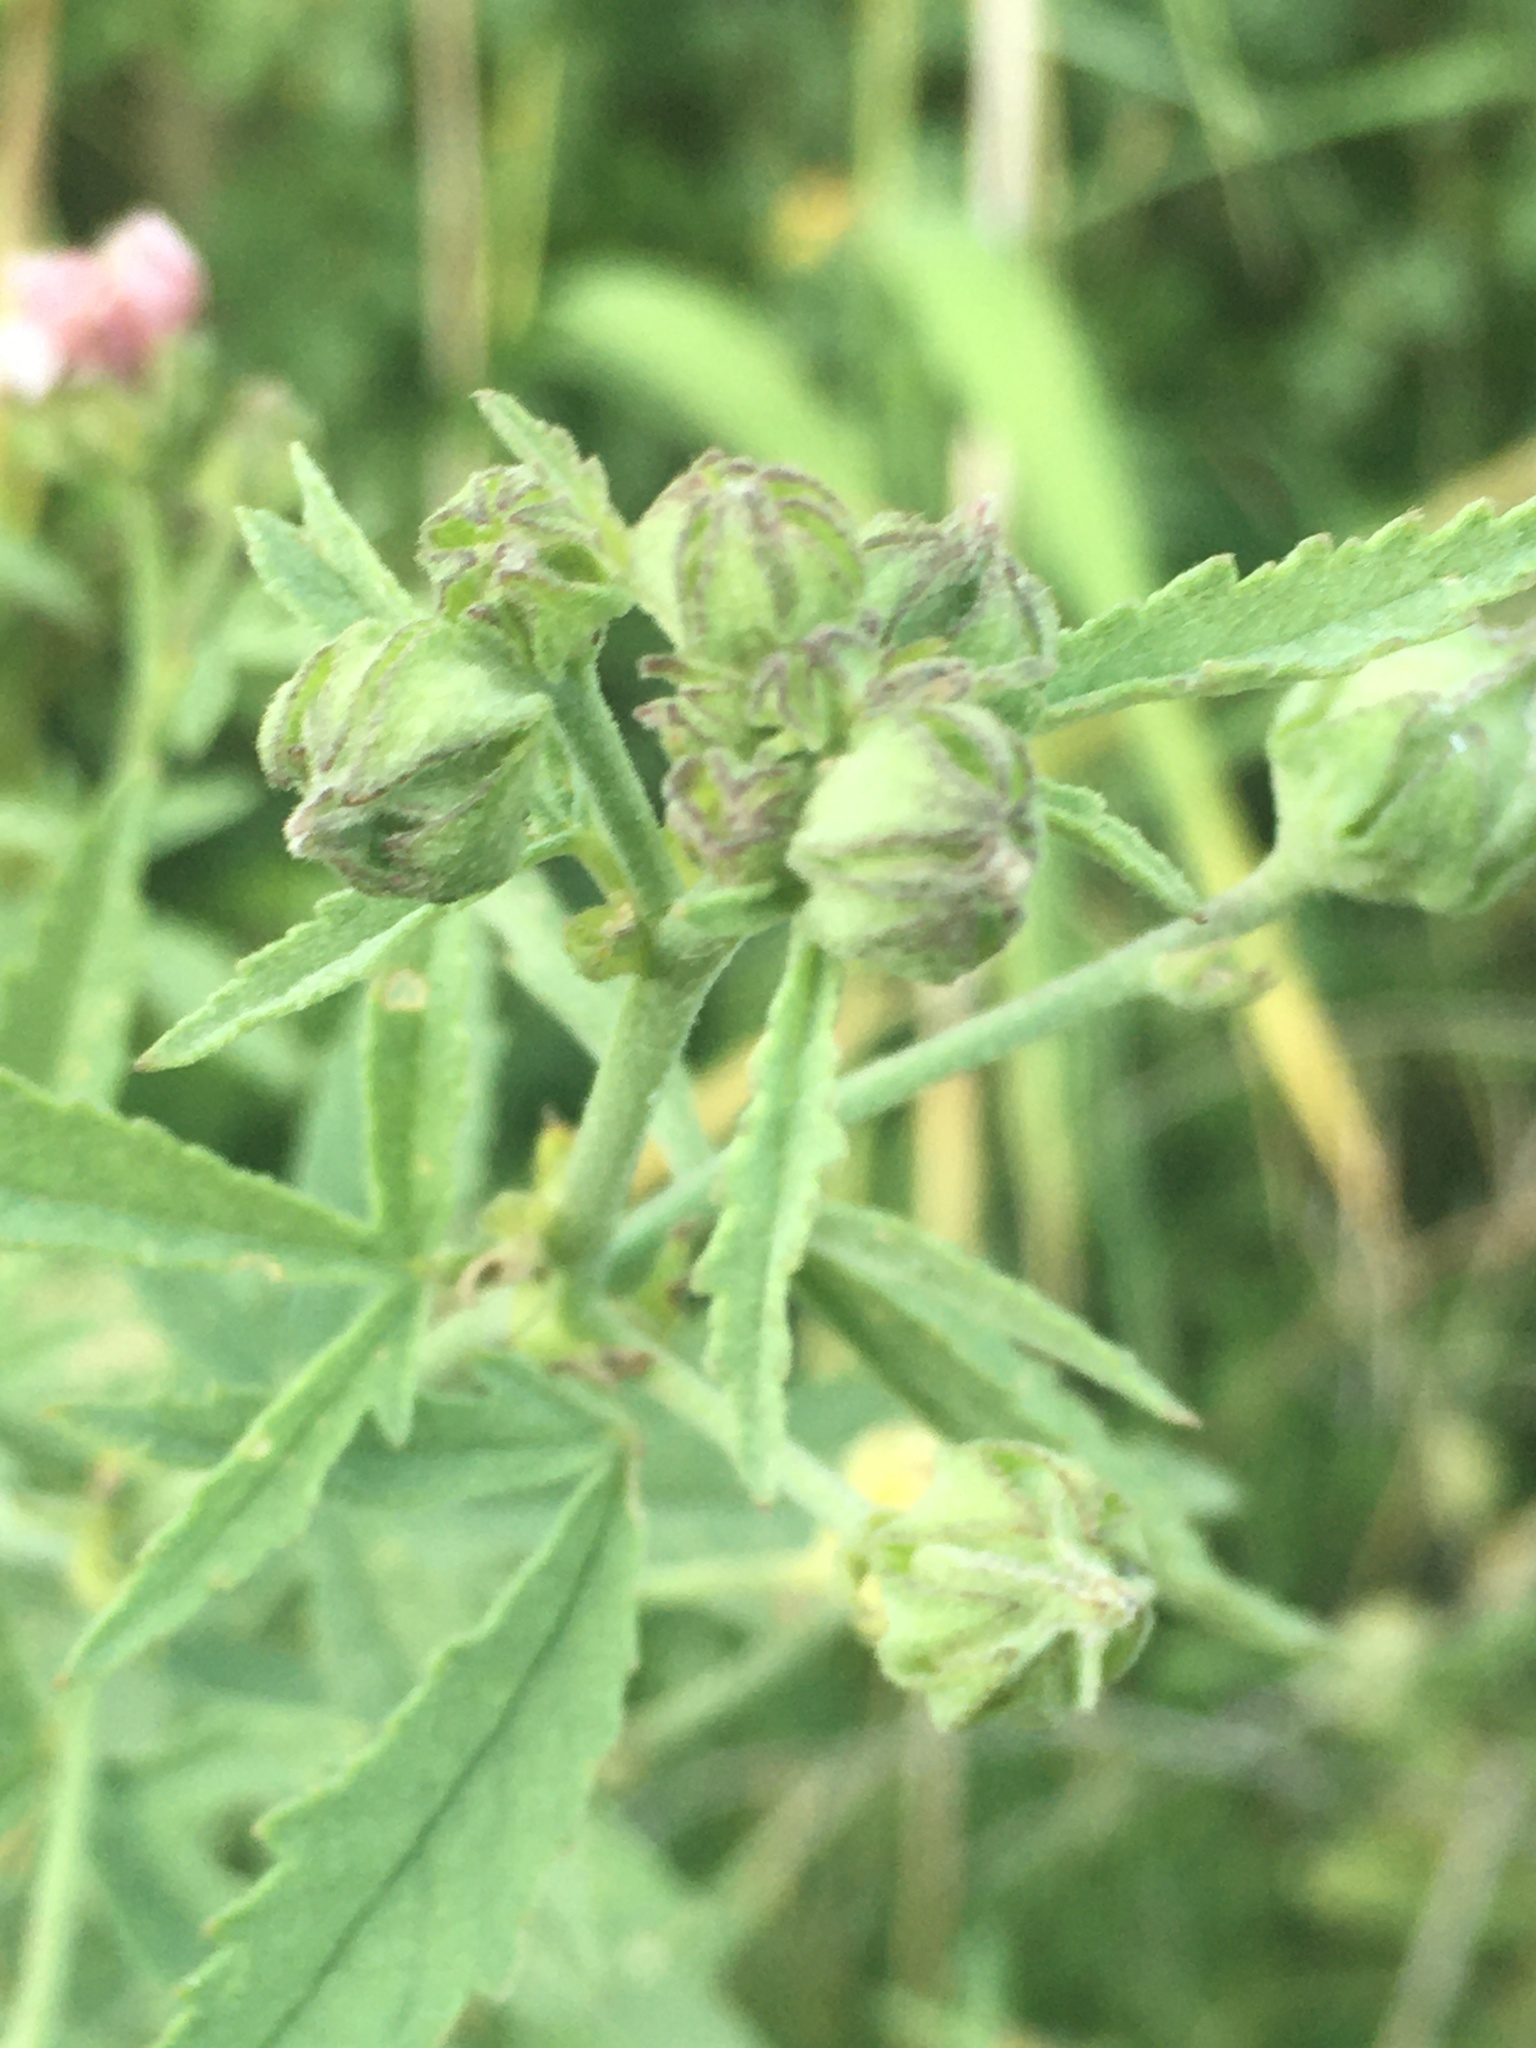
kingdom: Plantae
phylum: Tracheophyta
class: Magnoliopsida
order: Malvales
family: Malvaceae
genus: Althaea
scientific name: Althaea cannabina
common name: Palm-leaf marshmallow
